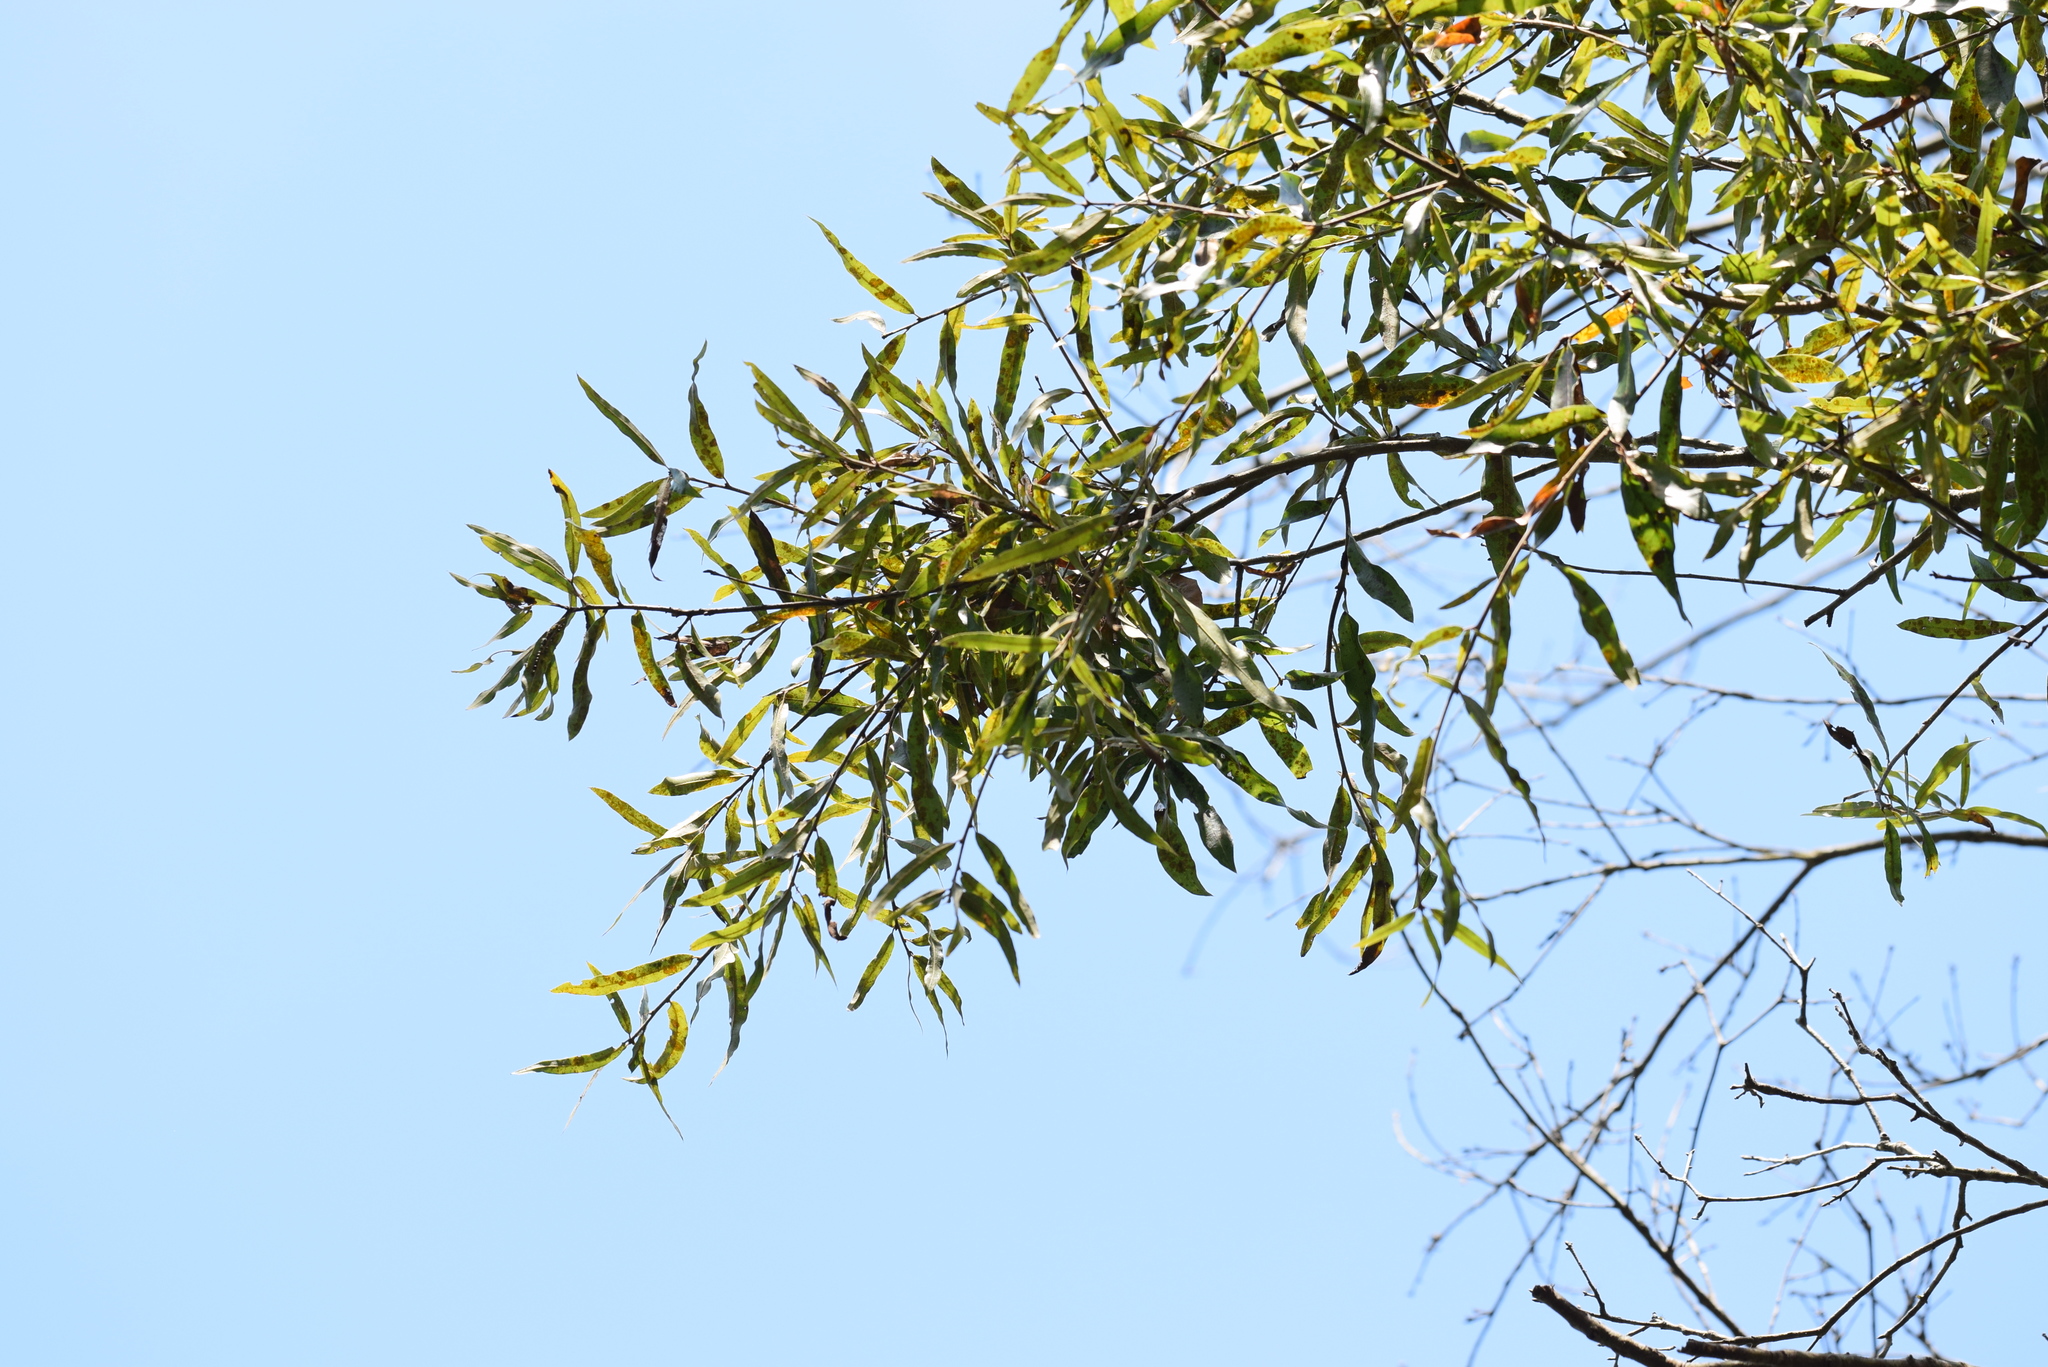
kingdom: Plantae
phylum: Tracheophyta
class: Magnoliopsida
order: Fagales
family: Fagaceae
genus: Quercus
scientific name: Quercus phellos
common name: Willow oak
